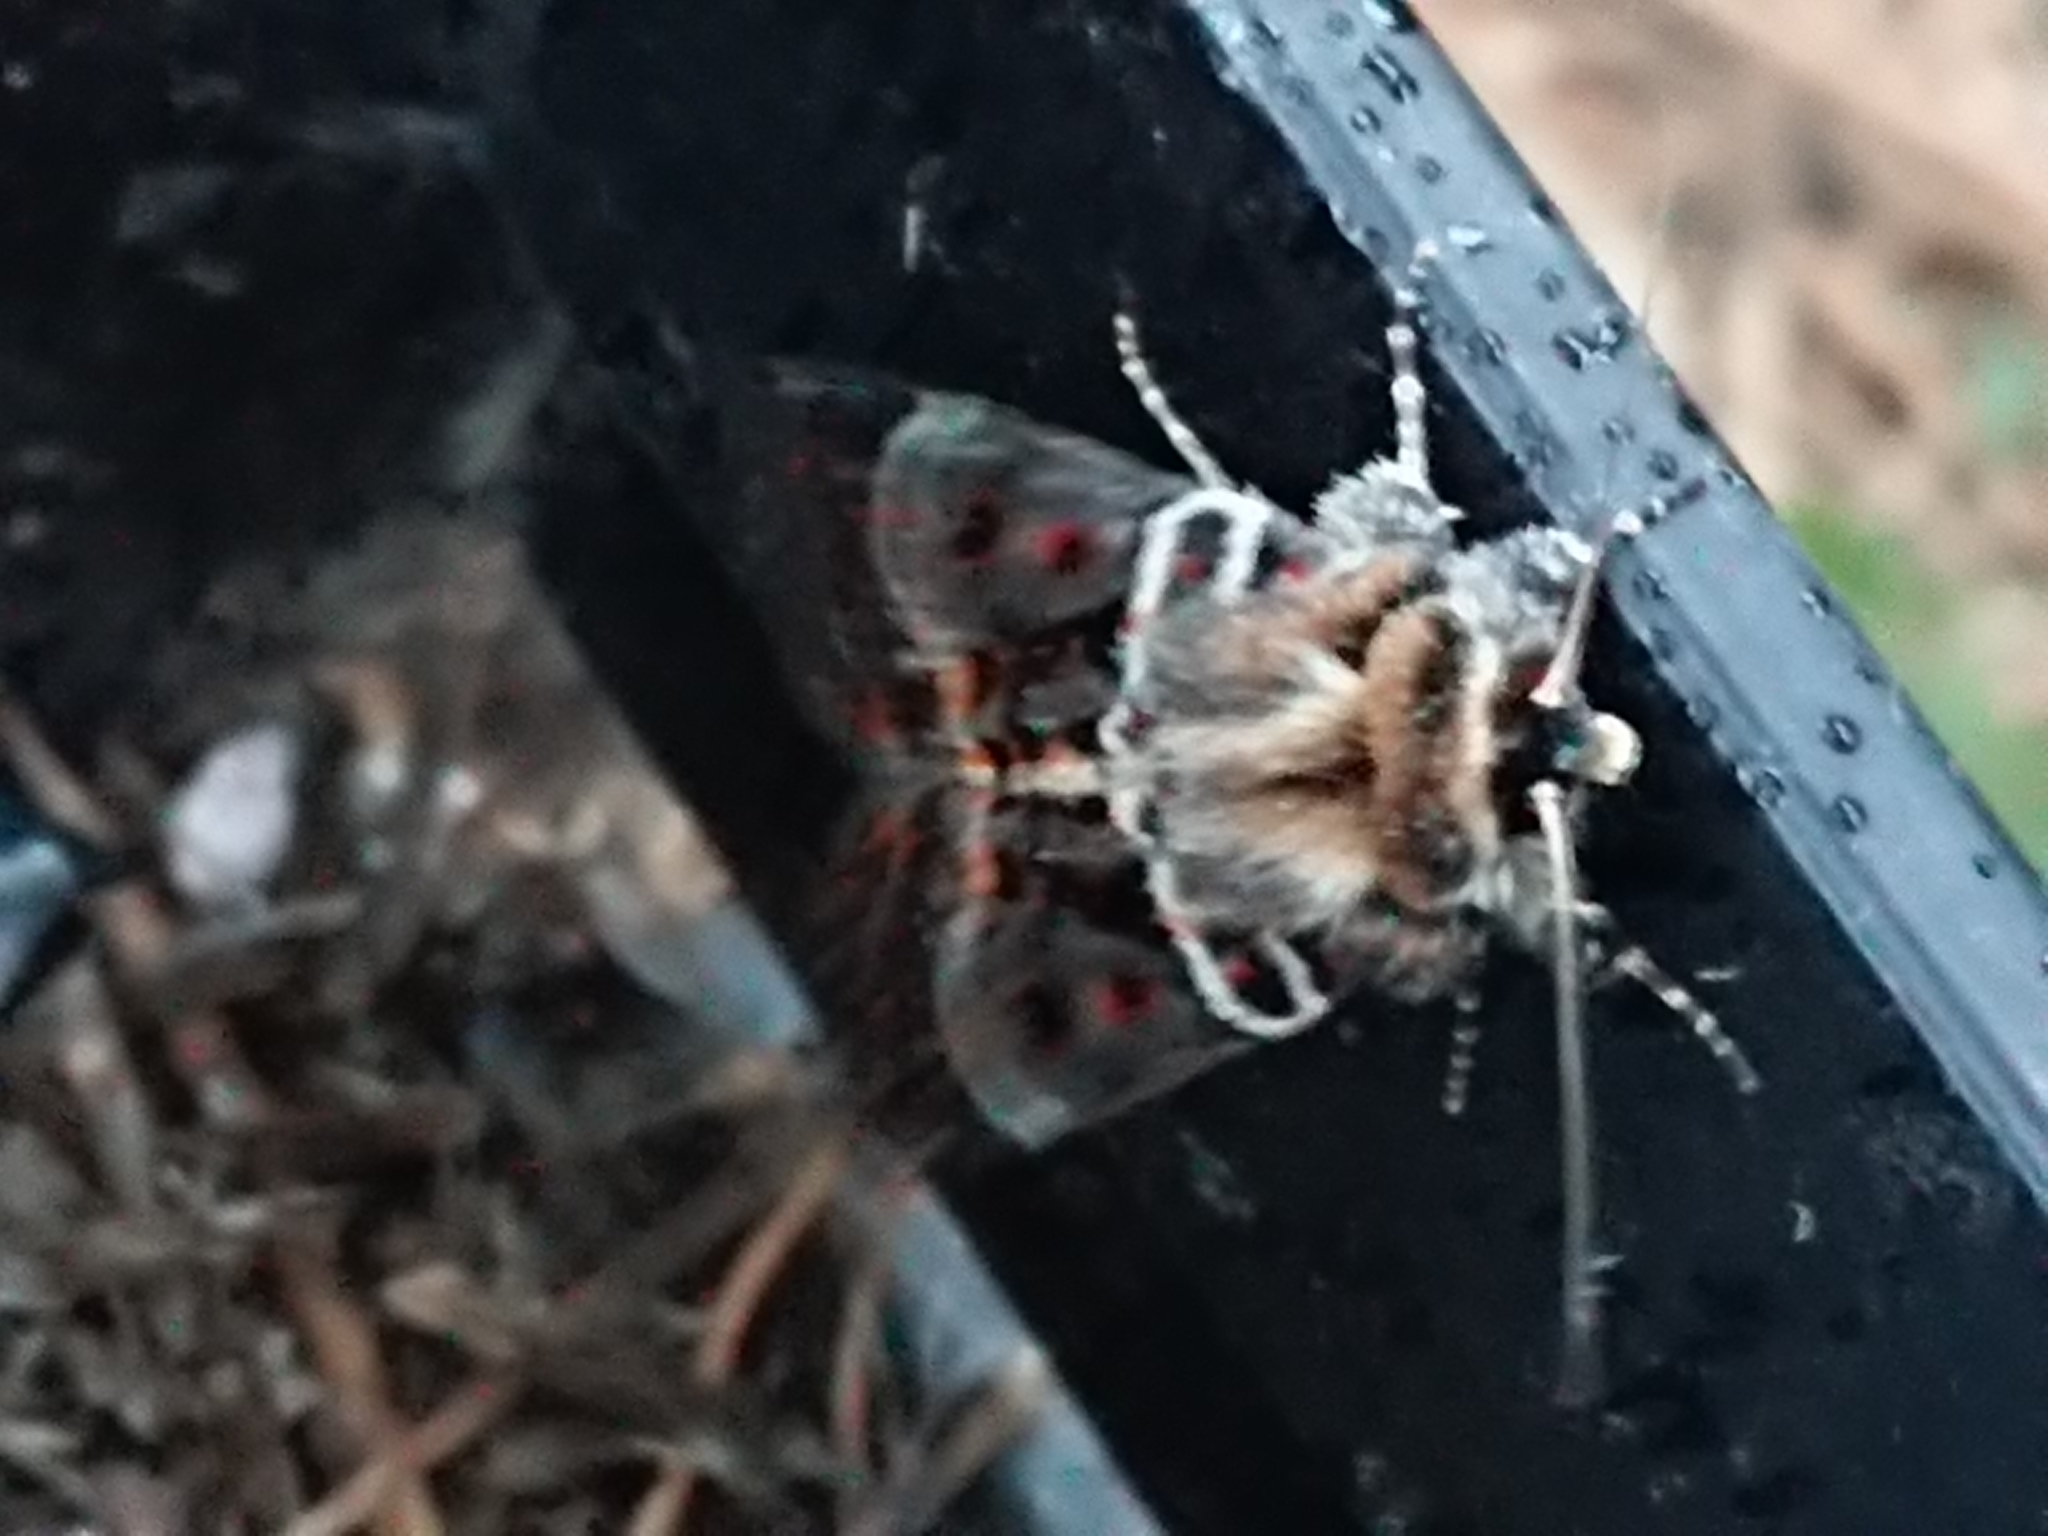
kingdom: Animalia
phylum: Arthropoda
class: Insecta
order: Lepidoptera
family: Noctuidae
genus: Proteuxoa
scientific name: Proteuxoa sanguinipuncta
